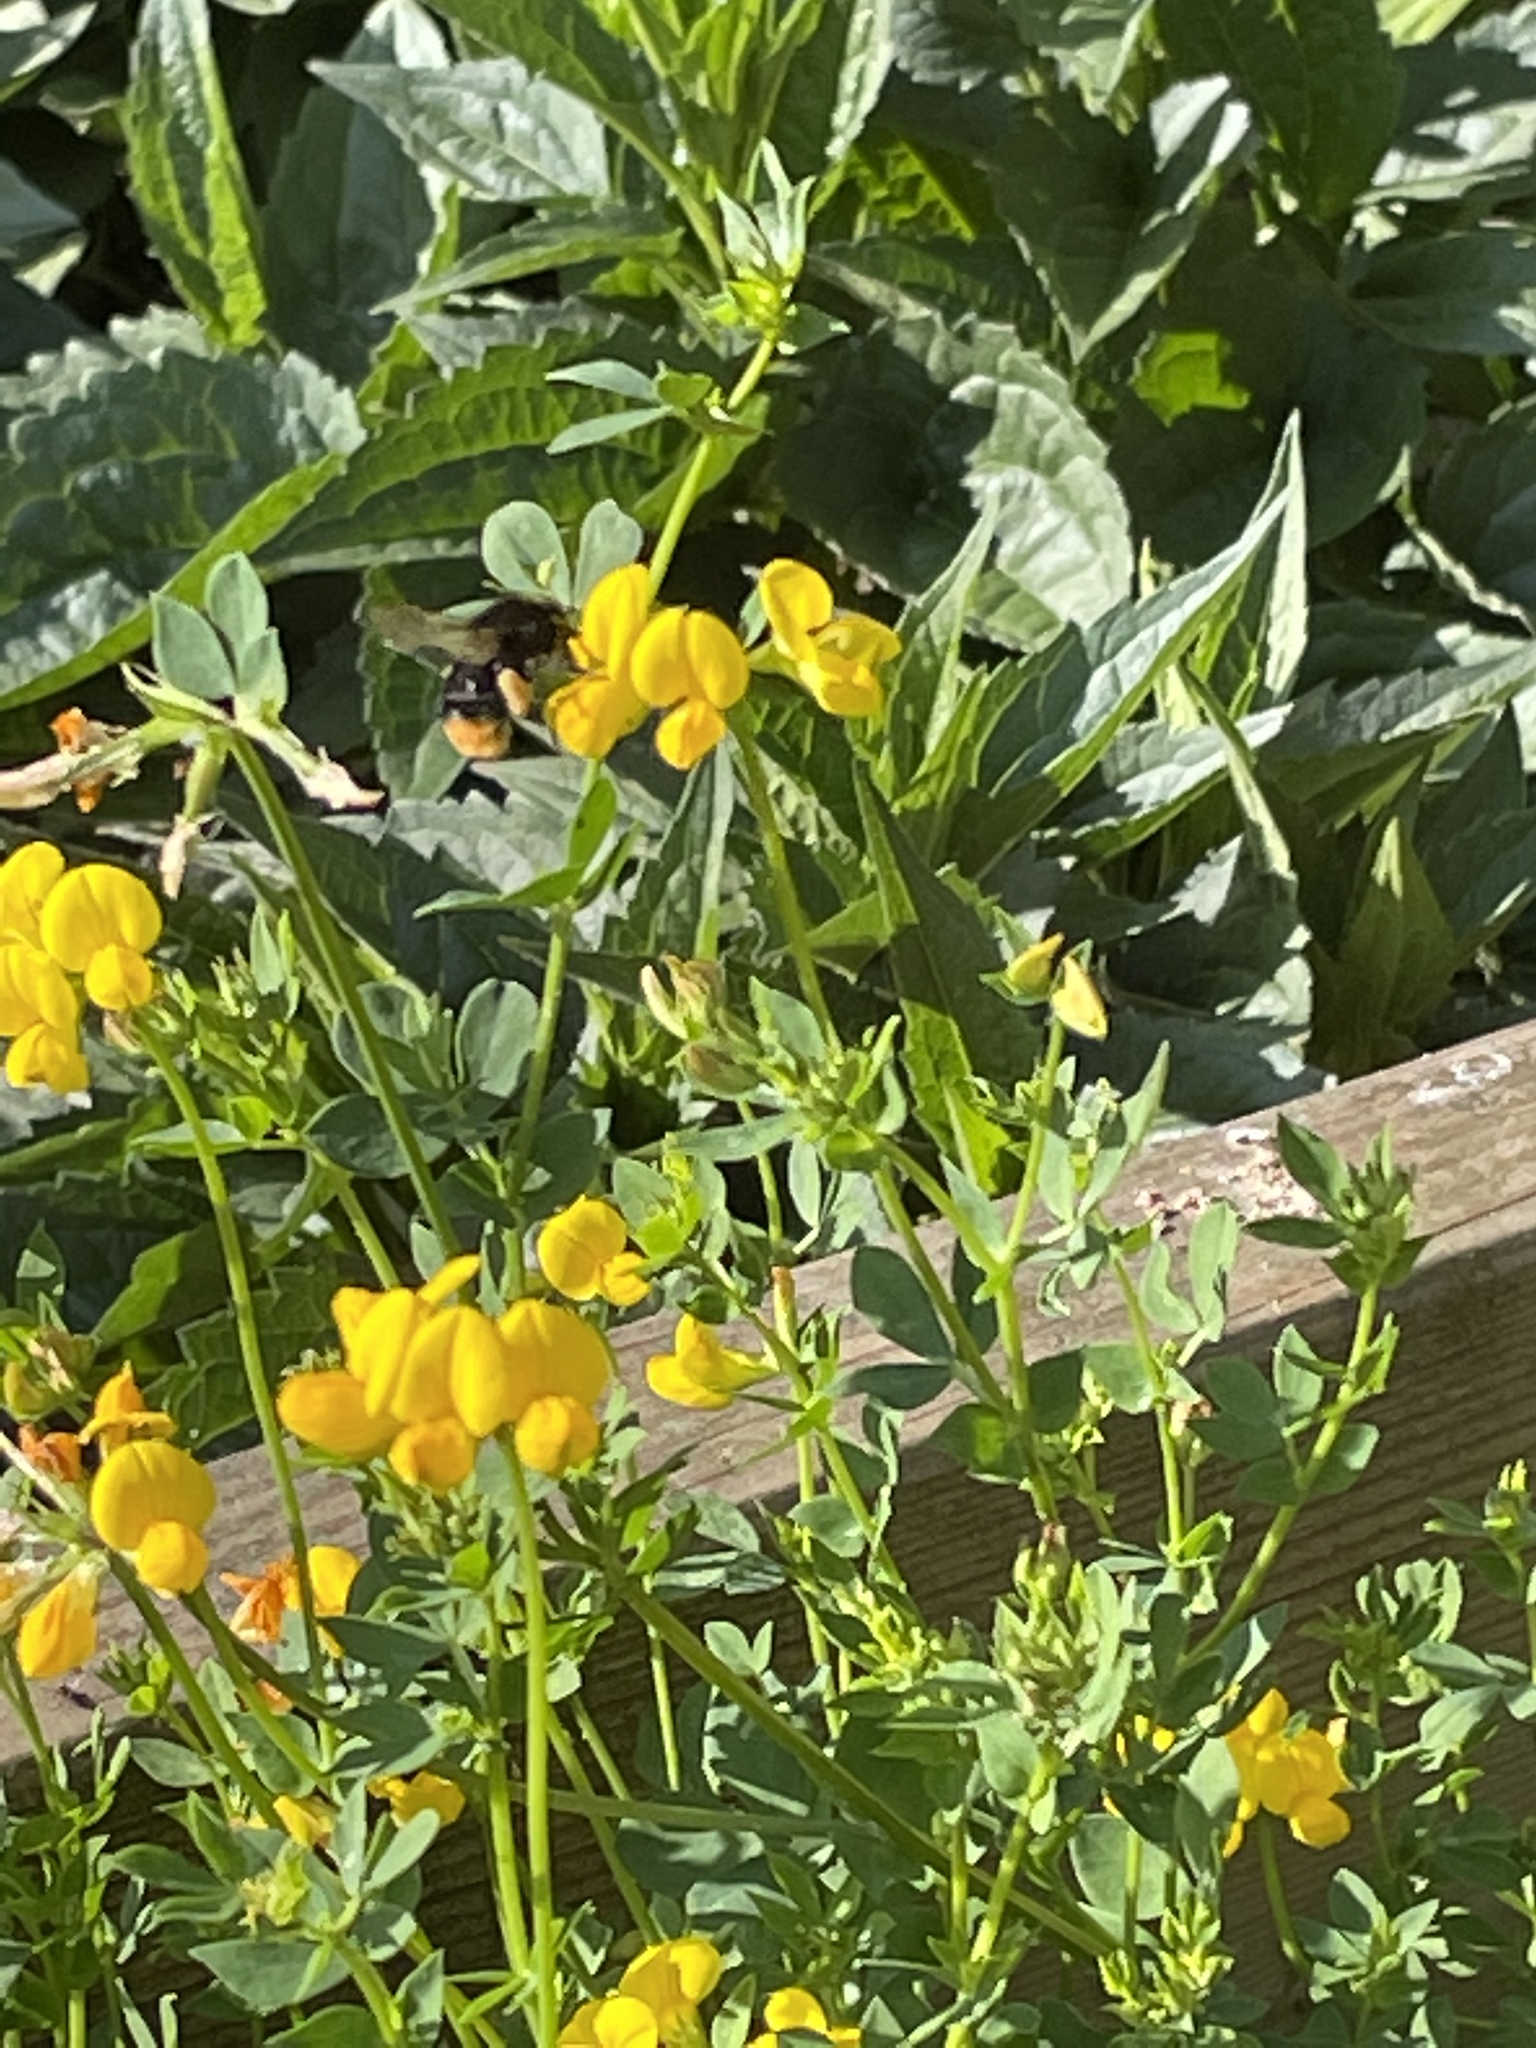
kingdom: Animalia
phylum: Arthropoda
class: Insecta
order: Hymenoptera
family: Apidae
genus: Bombus
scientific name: Bombus lapidarius
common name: Large red-tailed humble-bee
